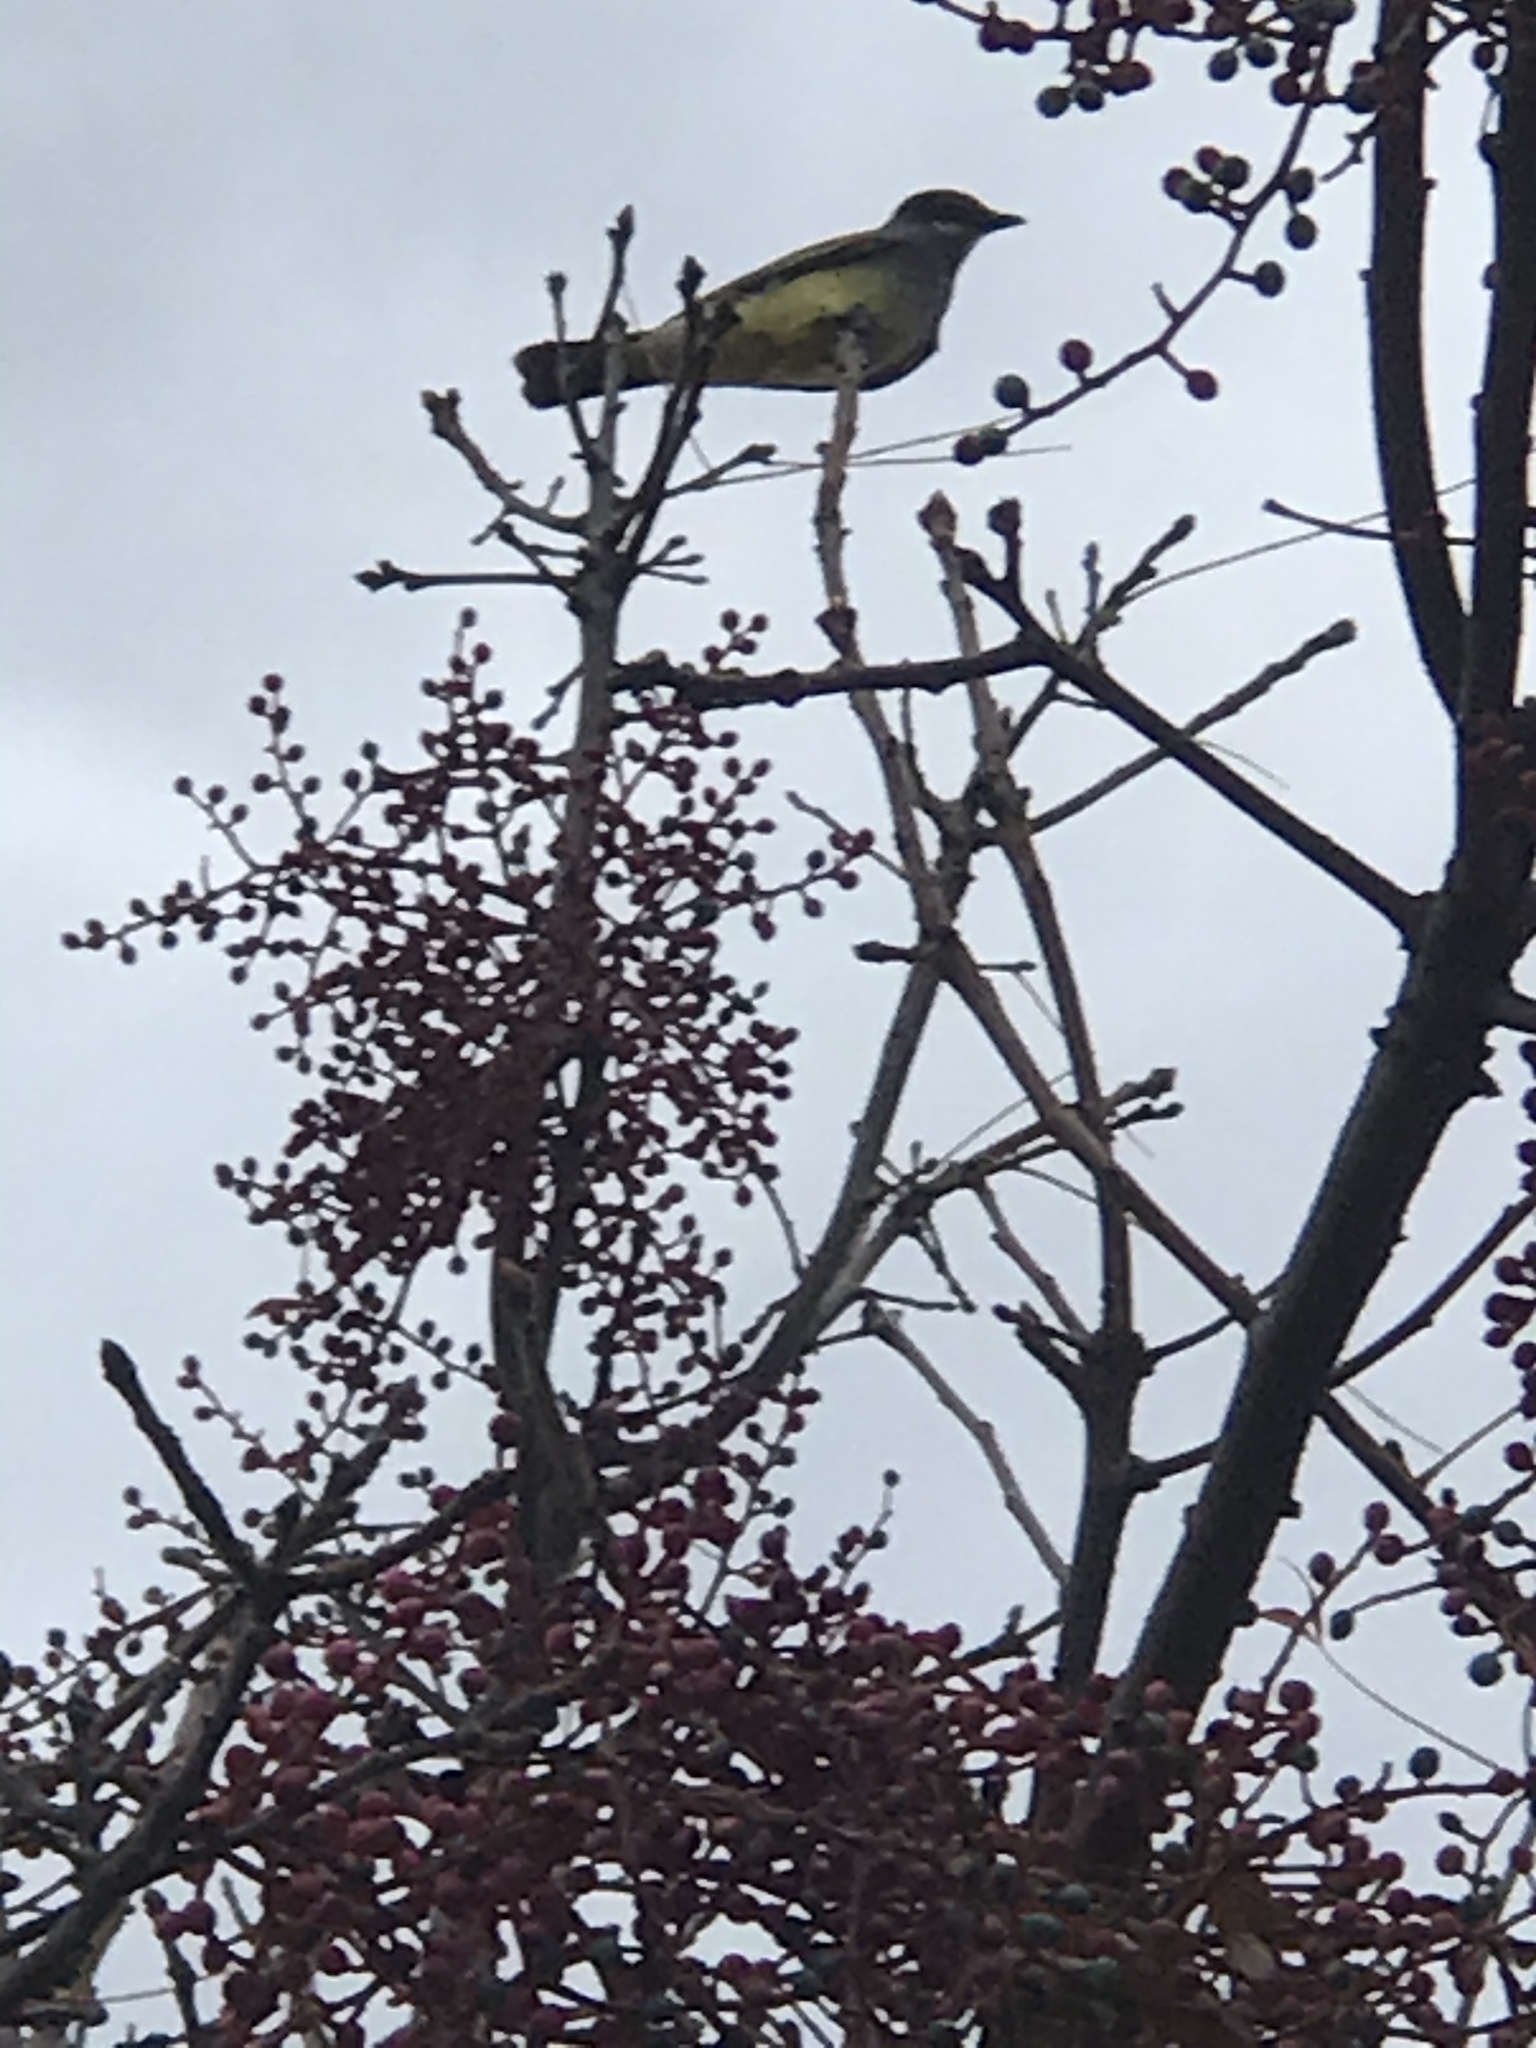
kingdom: Animalia
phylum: Chordata
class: Aves
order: Passeriformes
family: Tyrannidae
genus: Tyrannus
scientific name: Tyrannus vociferans
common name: Cassin's kingbird
